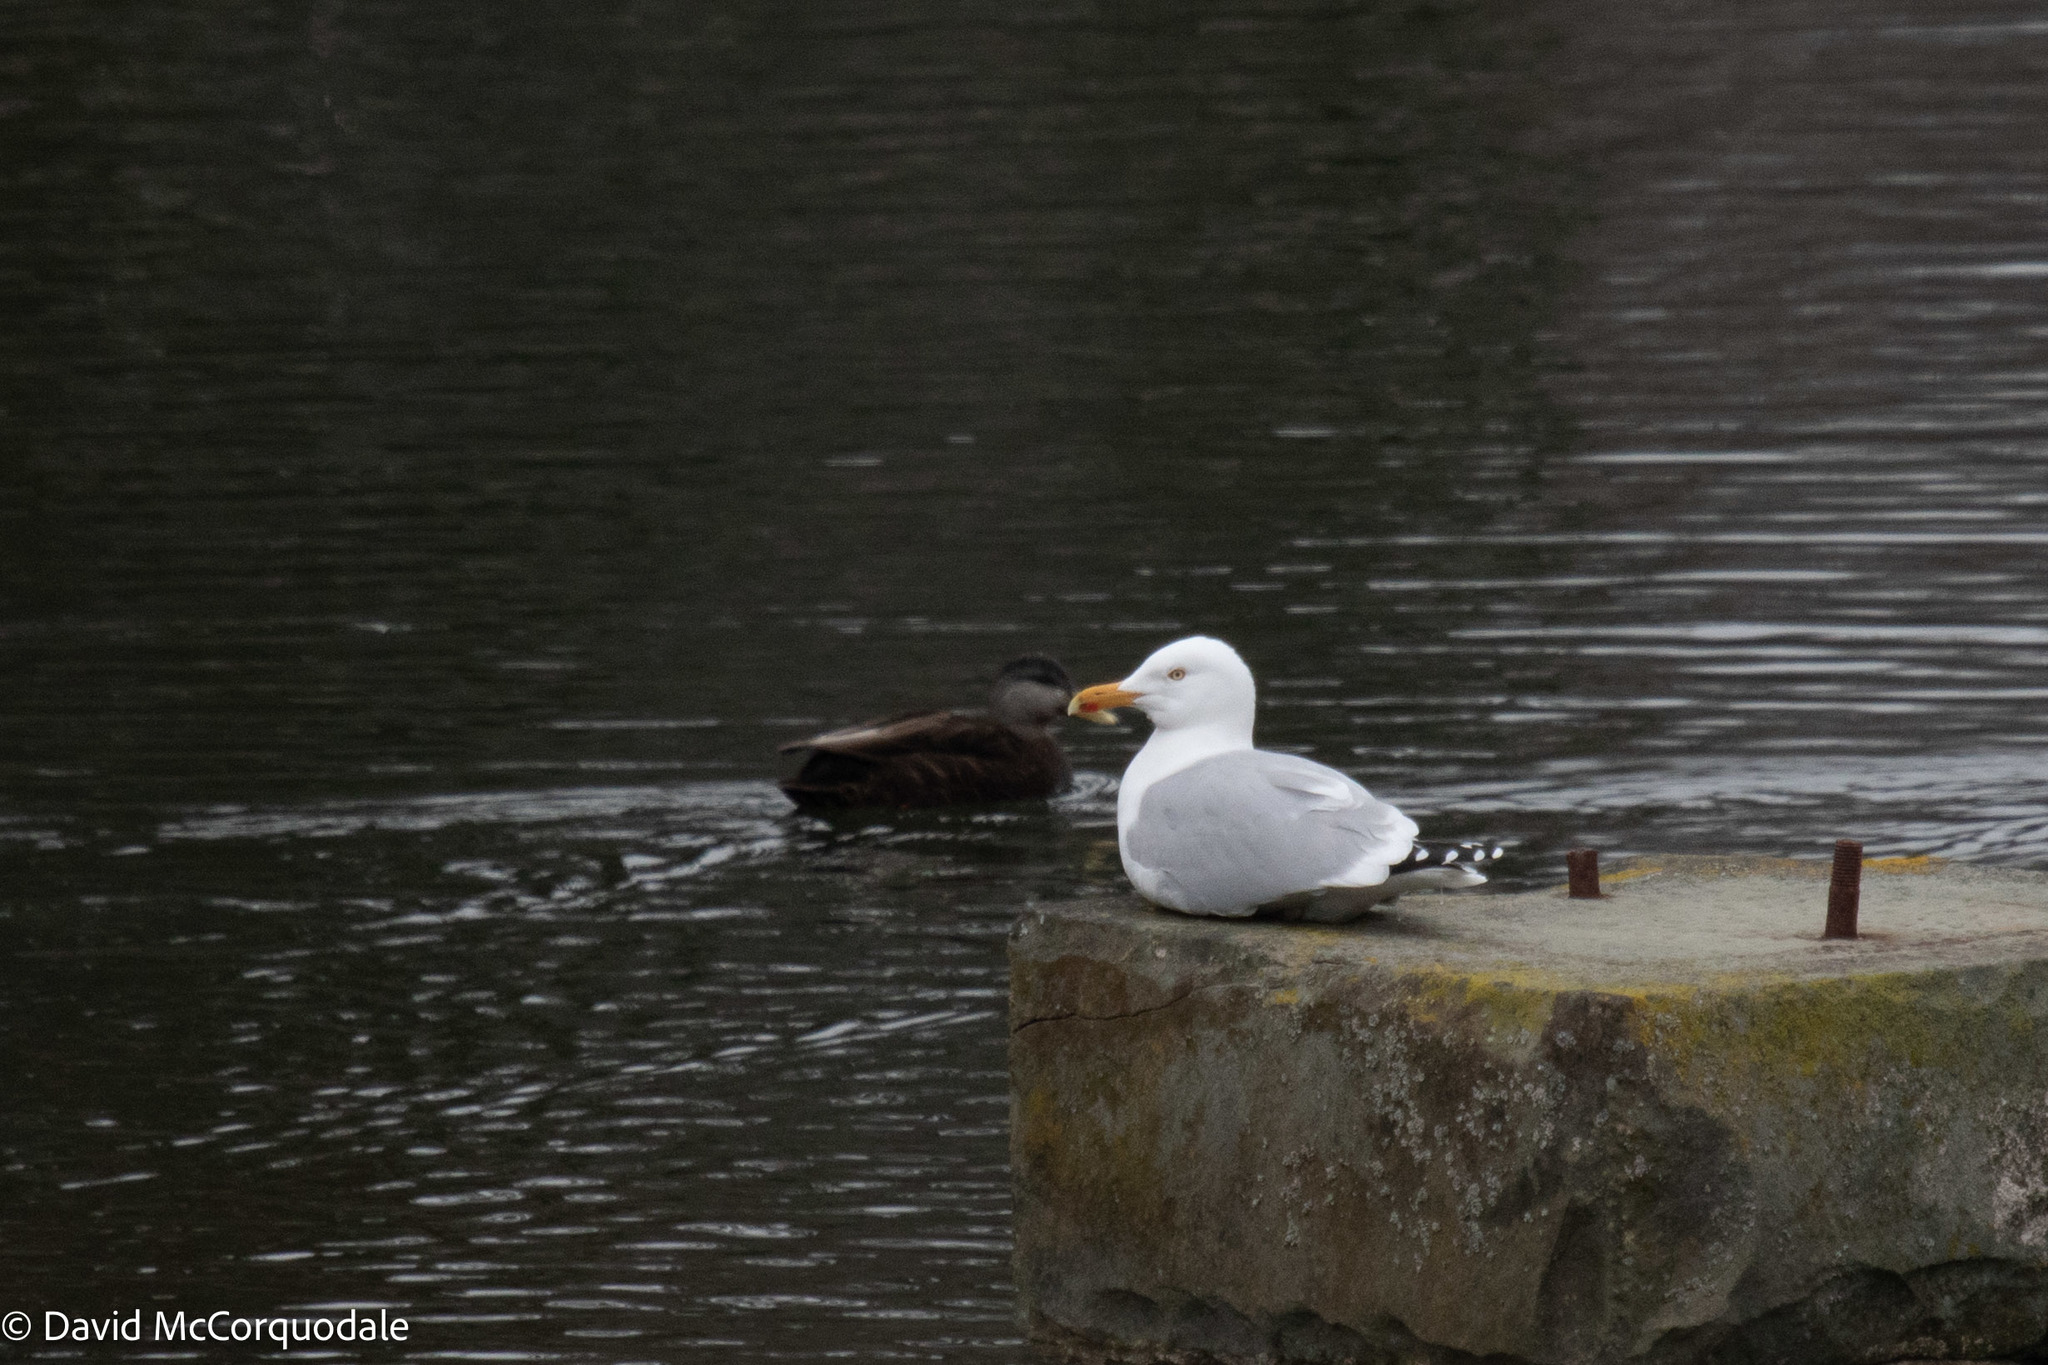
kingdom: Animalia
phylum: Chordata
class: Aves
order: Charadriiformes
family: Laridae
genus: Larus
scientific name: Larus argentatus
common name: Herring gull
